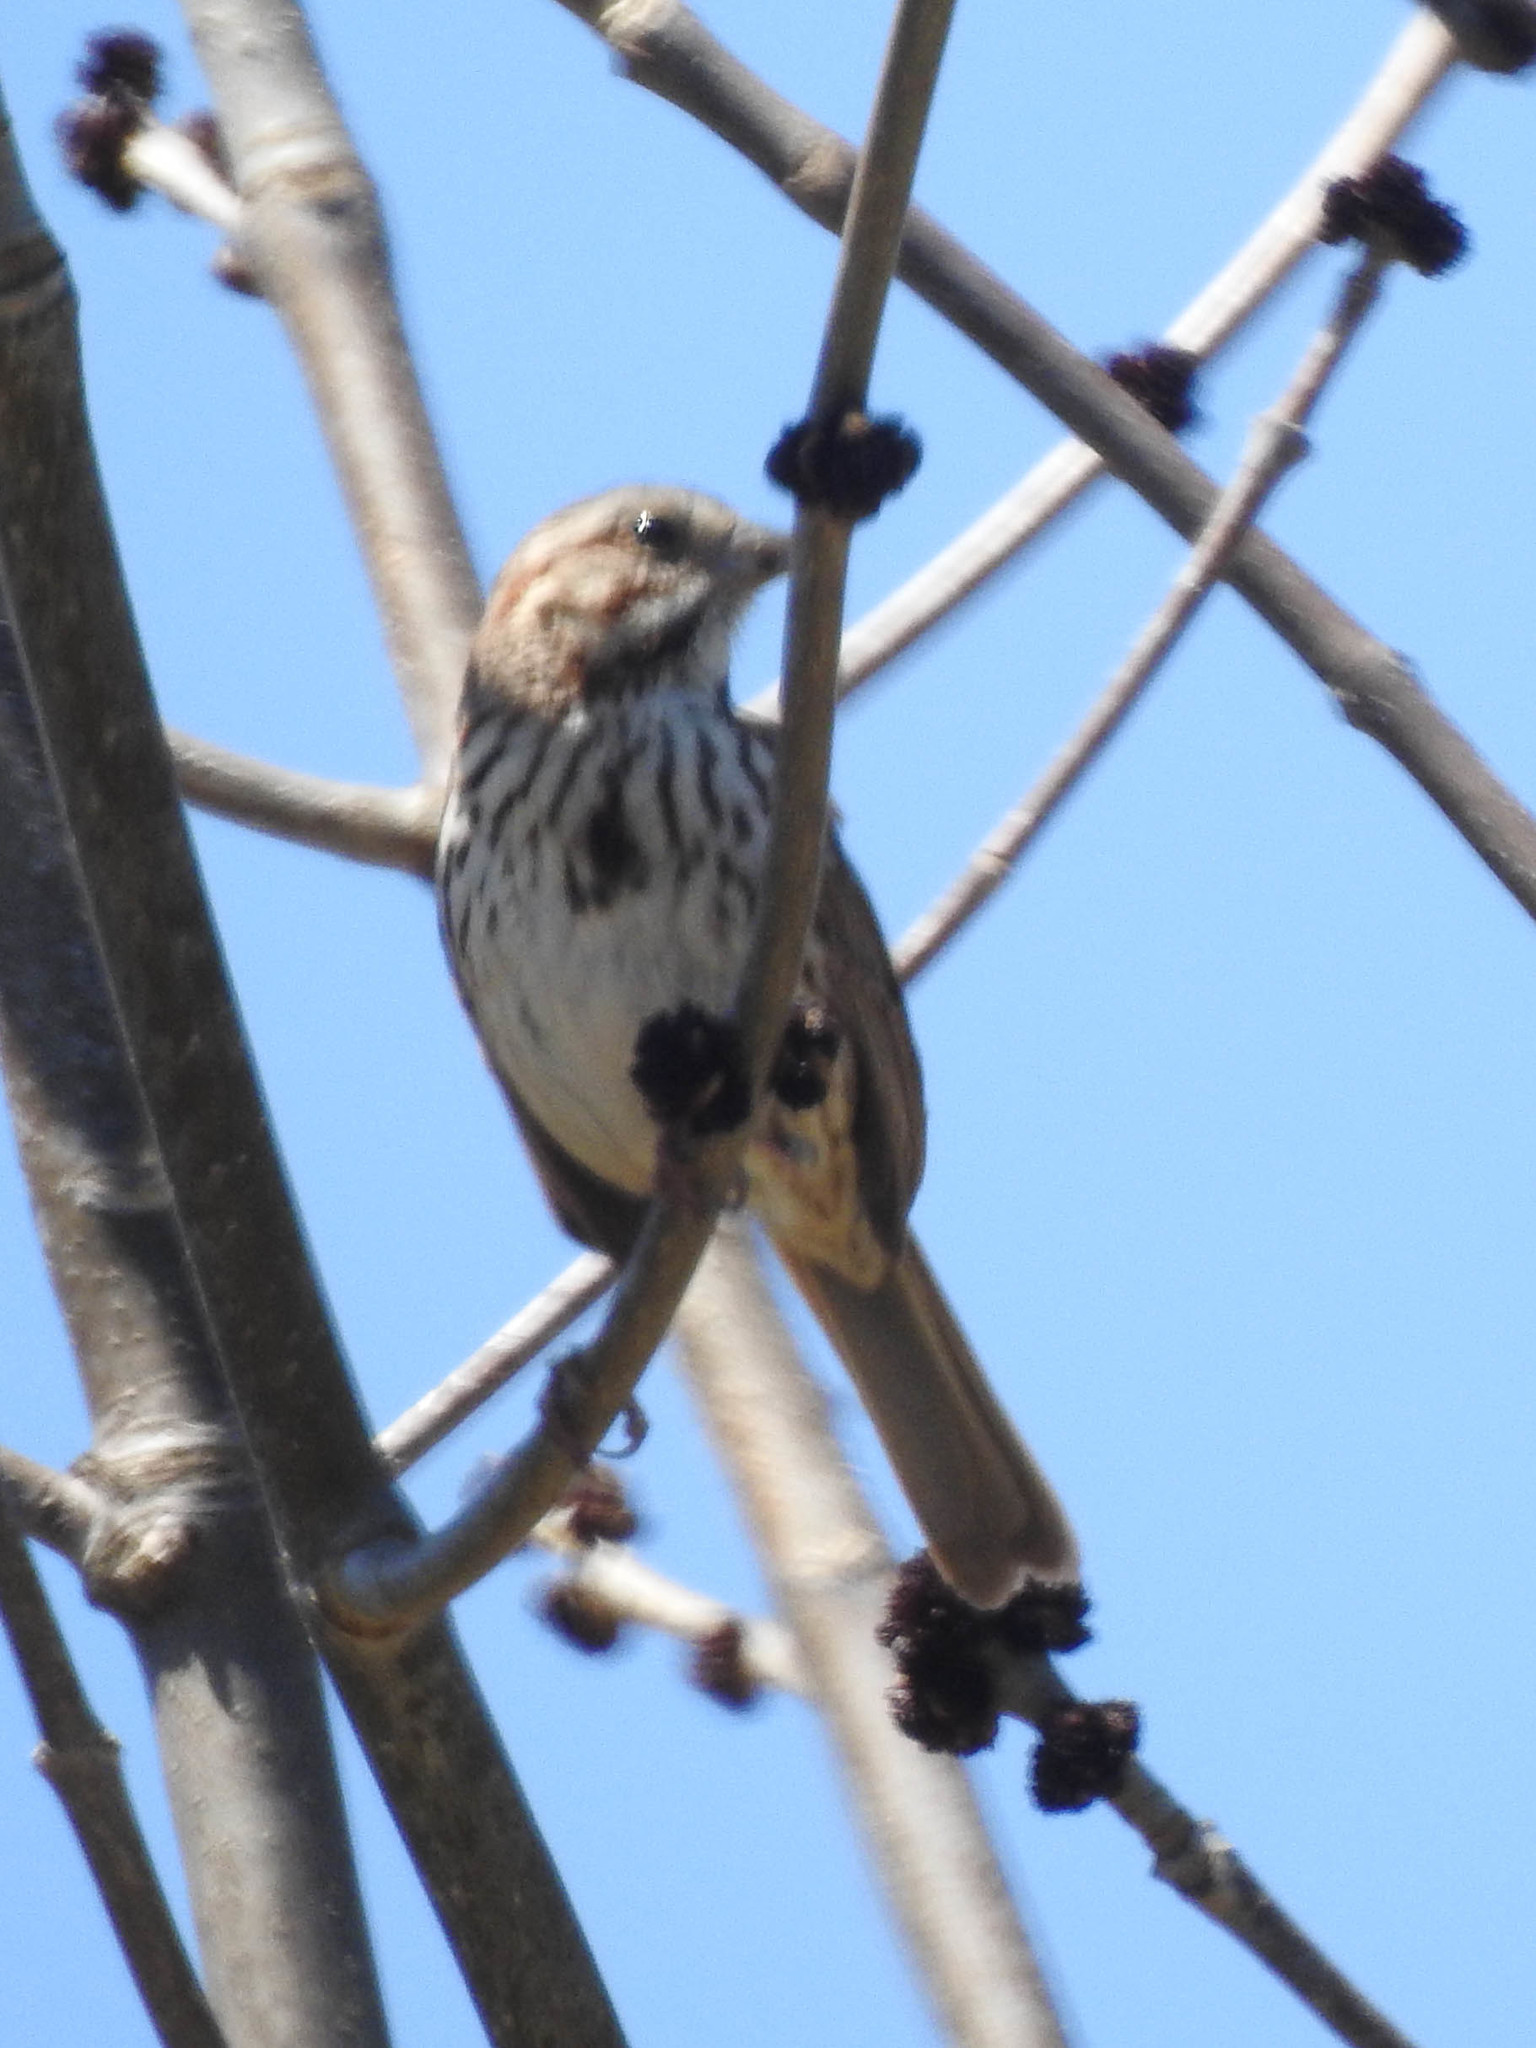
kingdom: Animalia
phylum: Chordata
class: Aves
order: Passeriformes
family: Passerellidae
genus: Melospiza
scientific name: Melospiza melodia
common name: Song sparrow
